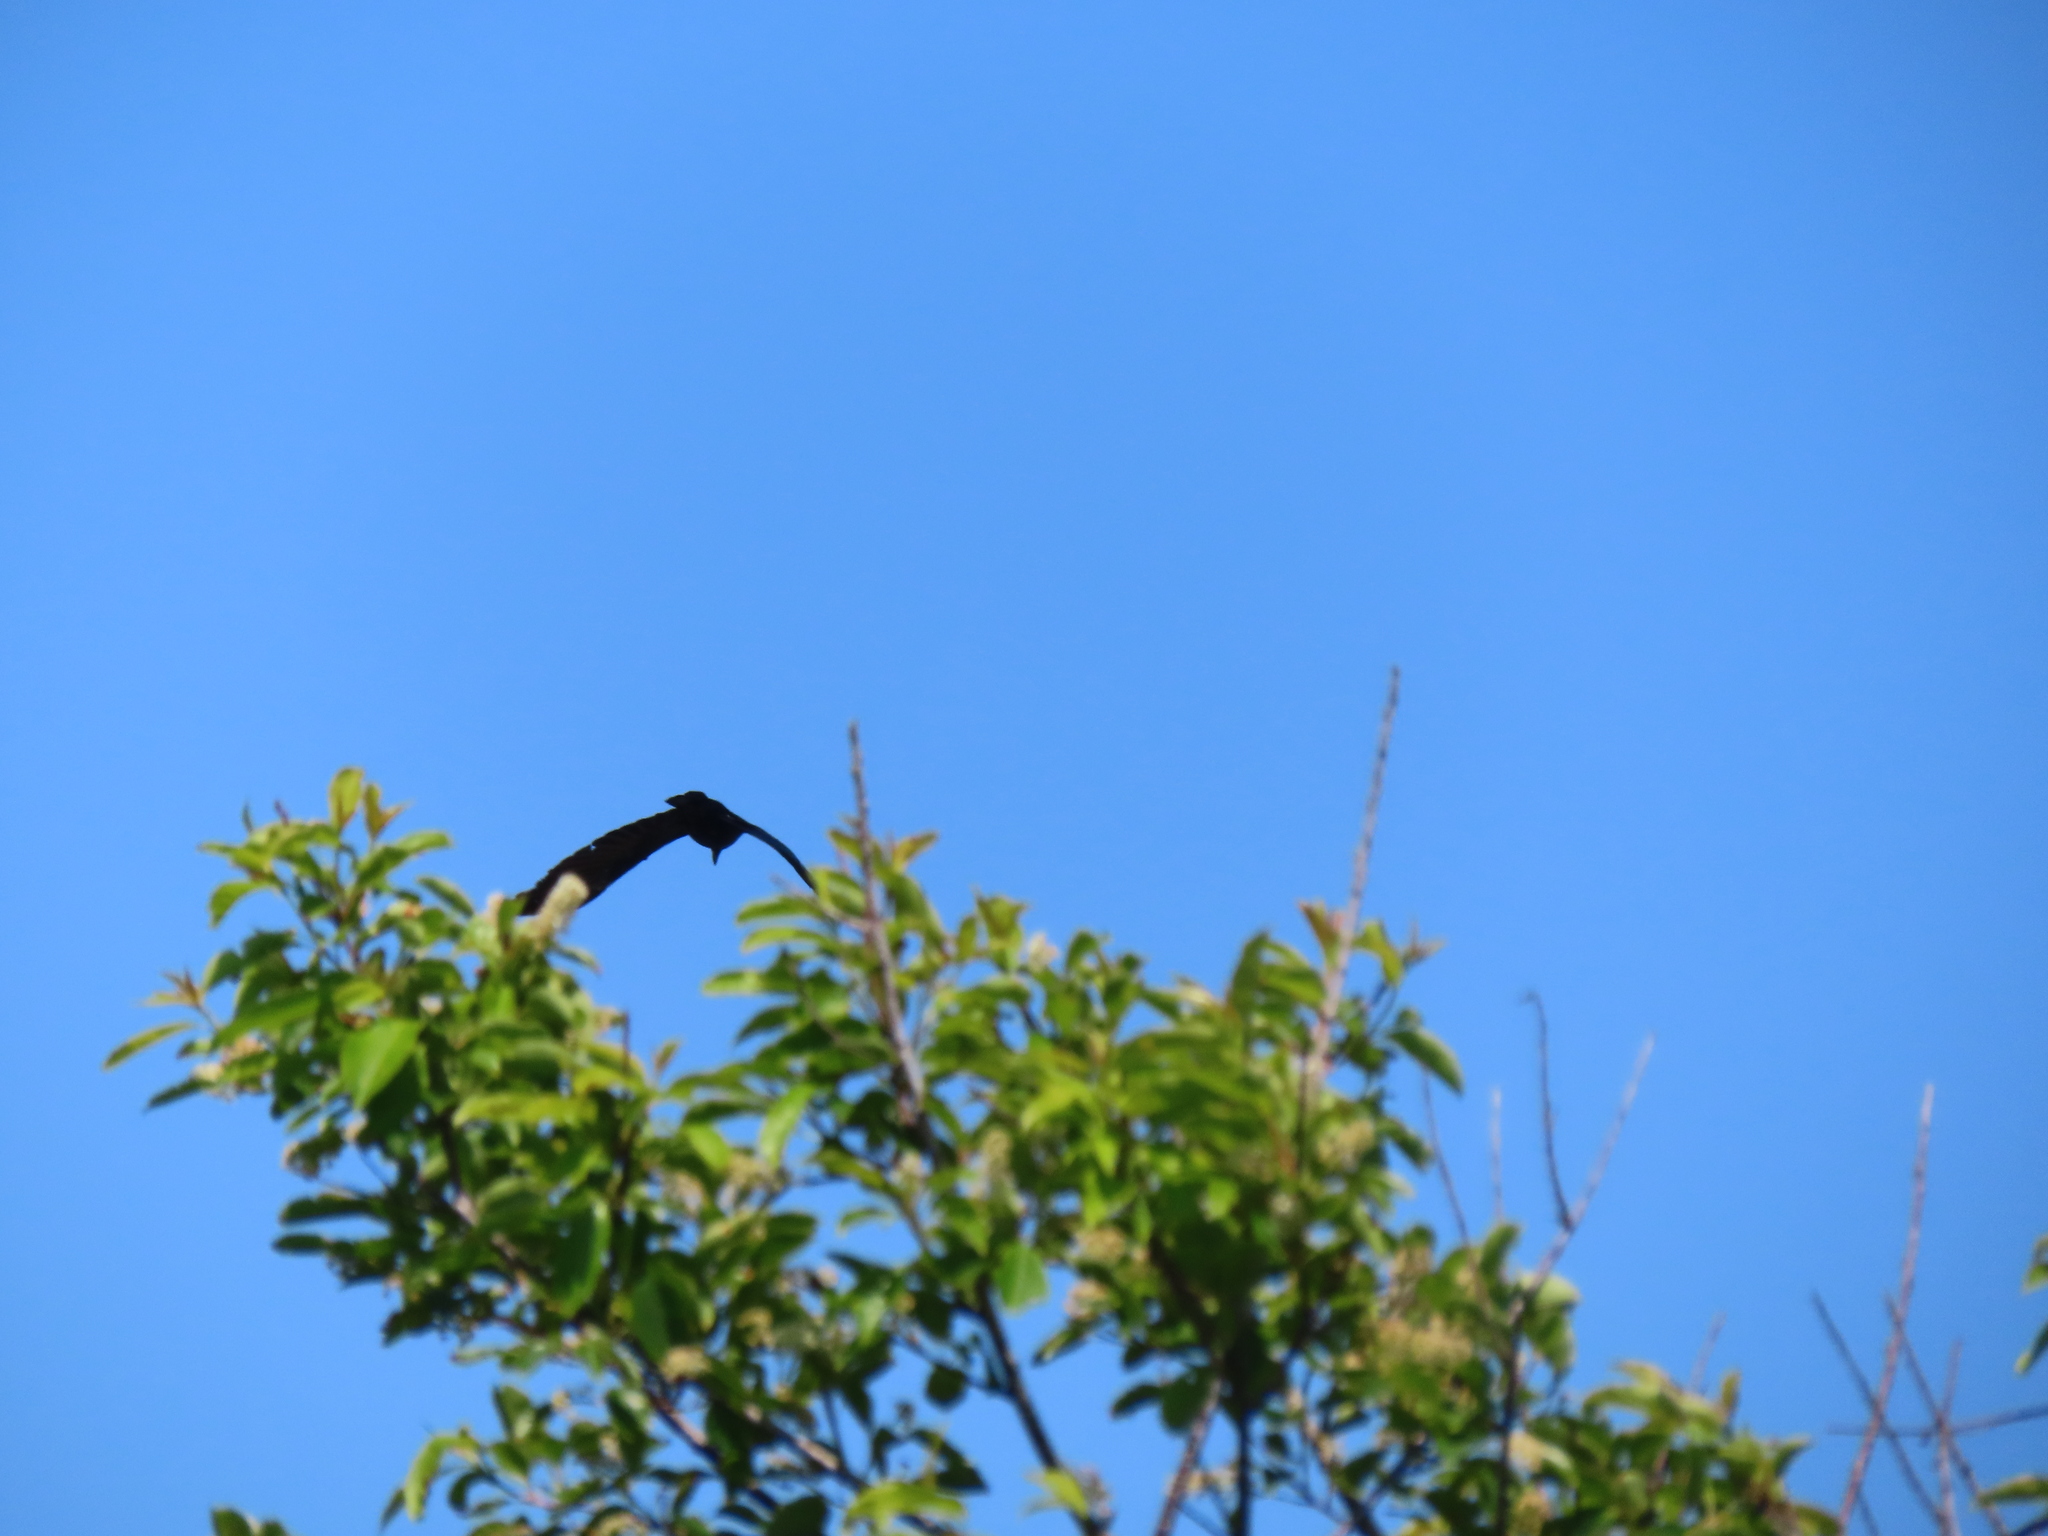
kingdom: Animalia
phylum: Chordata
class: Aves
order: Passeriformes
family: Corvidae
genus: Corvus
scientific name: Corvus corax
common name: Common raven
